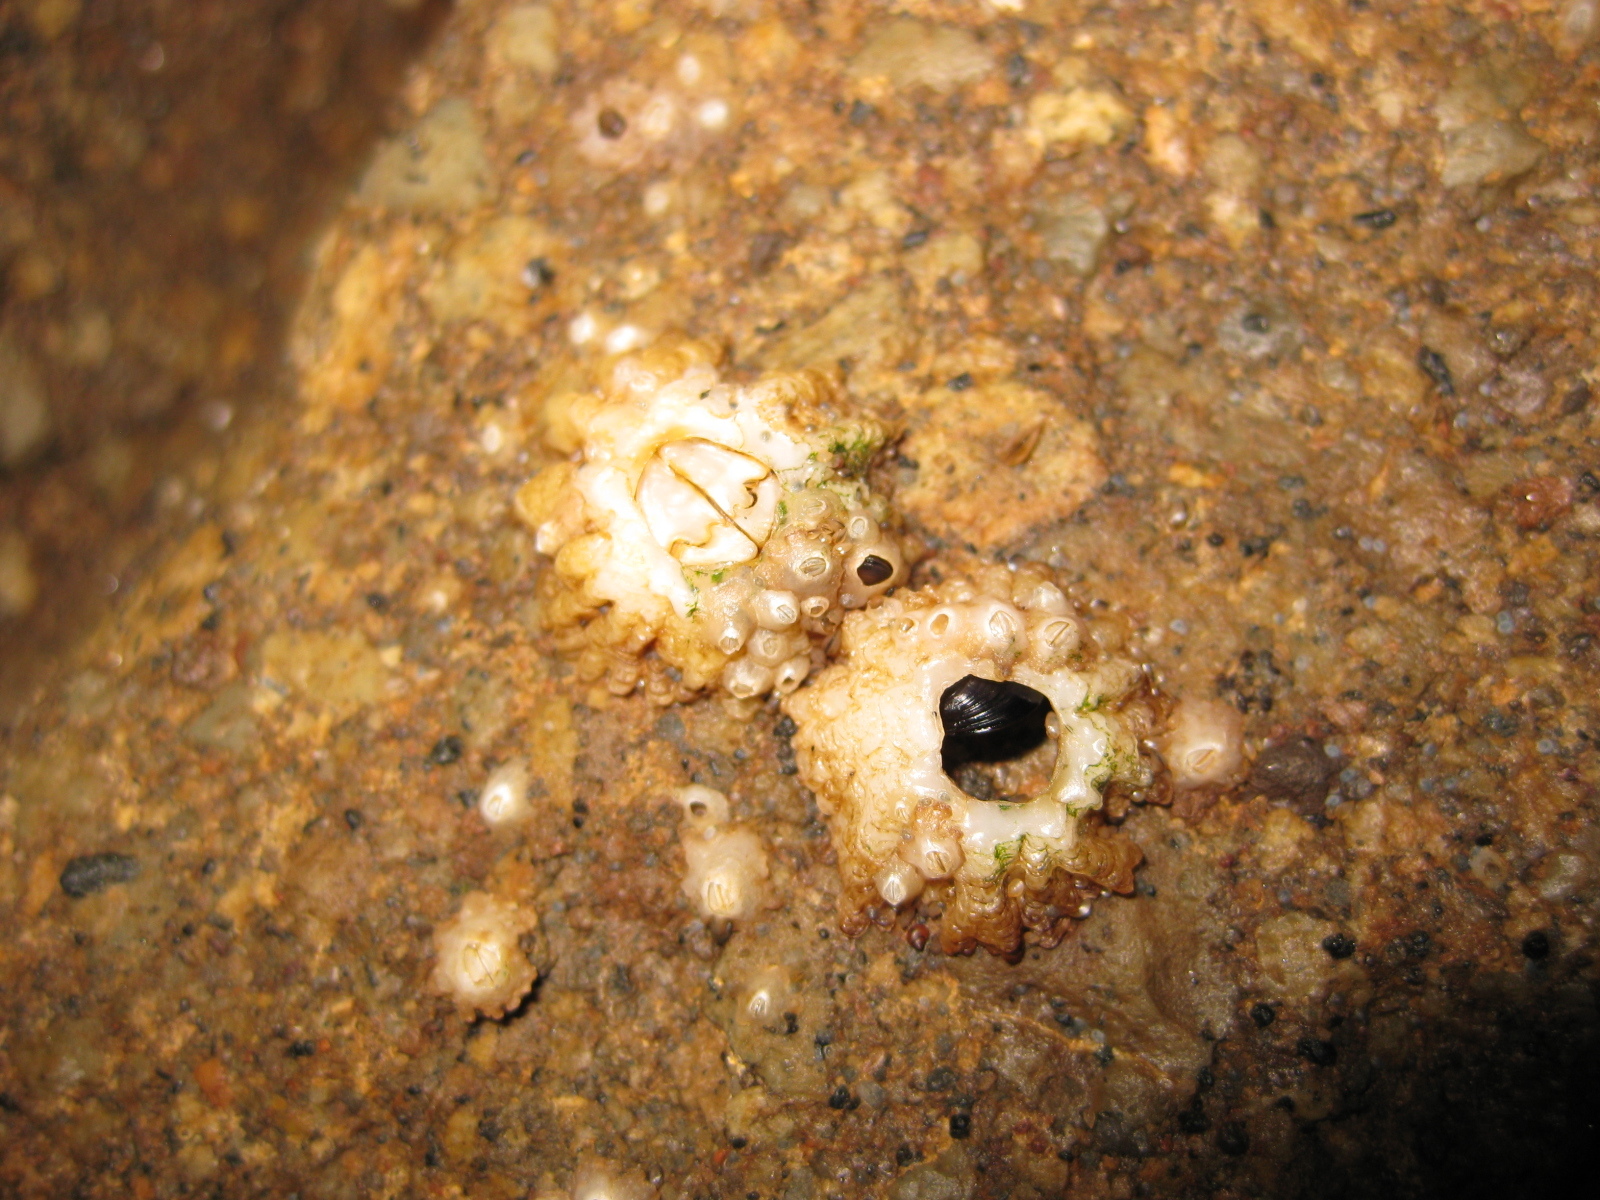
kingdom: Animalia
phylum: Arthropoda
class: Maxillopoda
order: Sessilia
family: Tetraclitidae
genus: Epopella
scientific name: Epopella plicata
